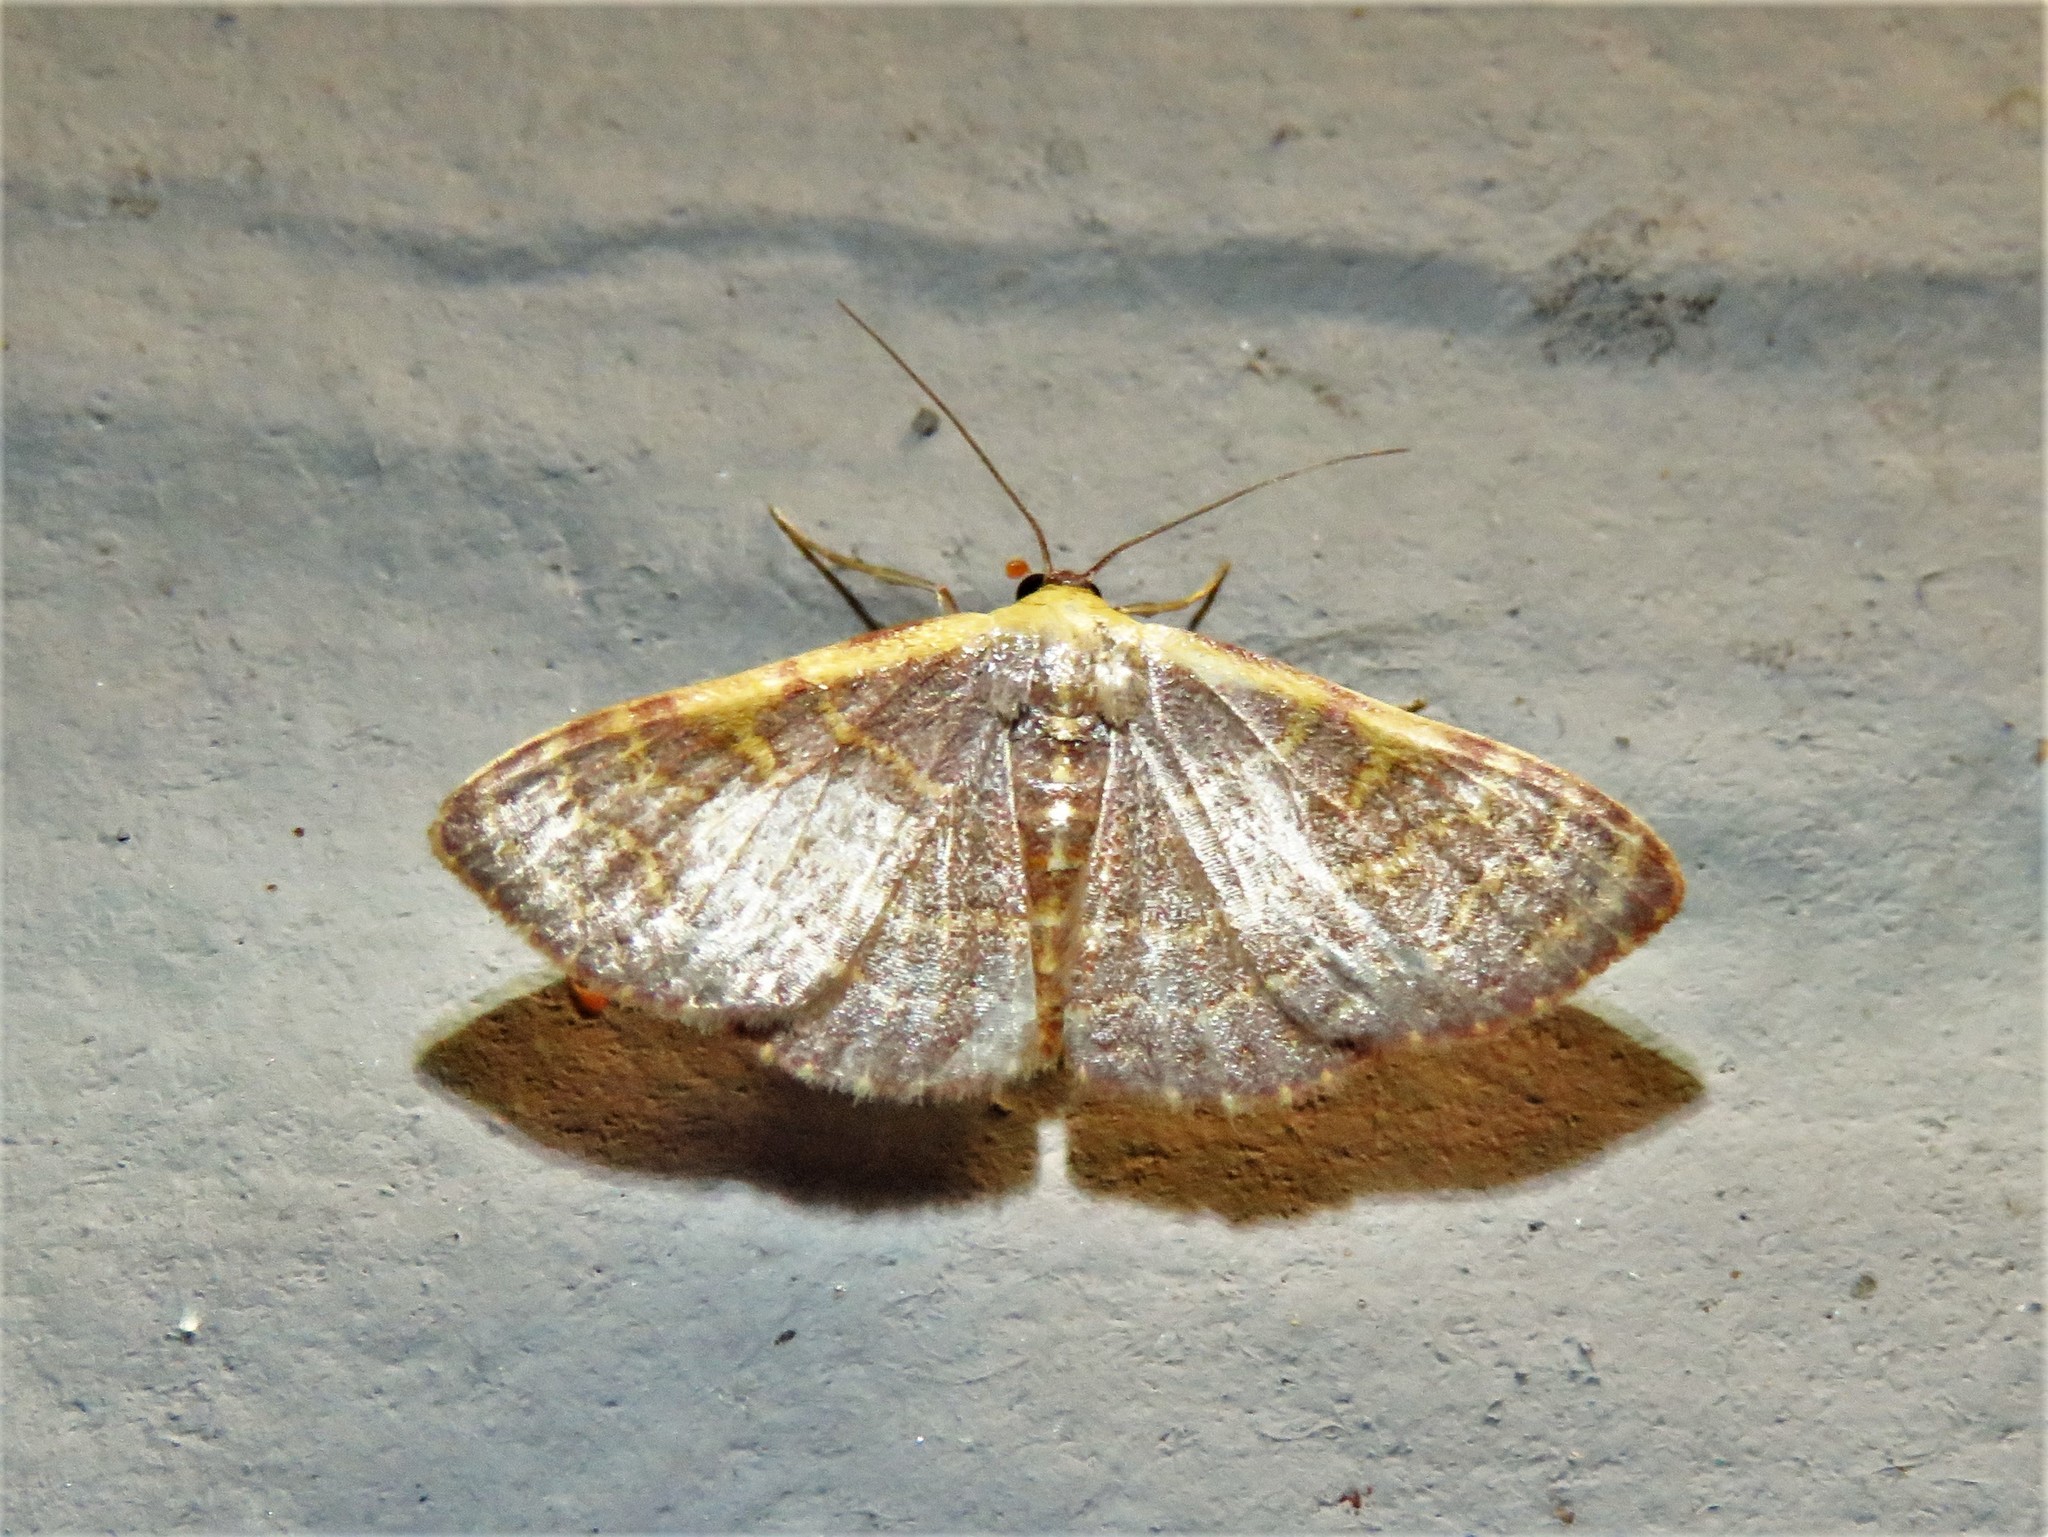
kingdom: Animalia
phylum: Arthropoda
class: Insecta
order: Lepidoptera
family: Geometridae
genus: Leptostales
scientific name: Leptostales pannaria
